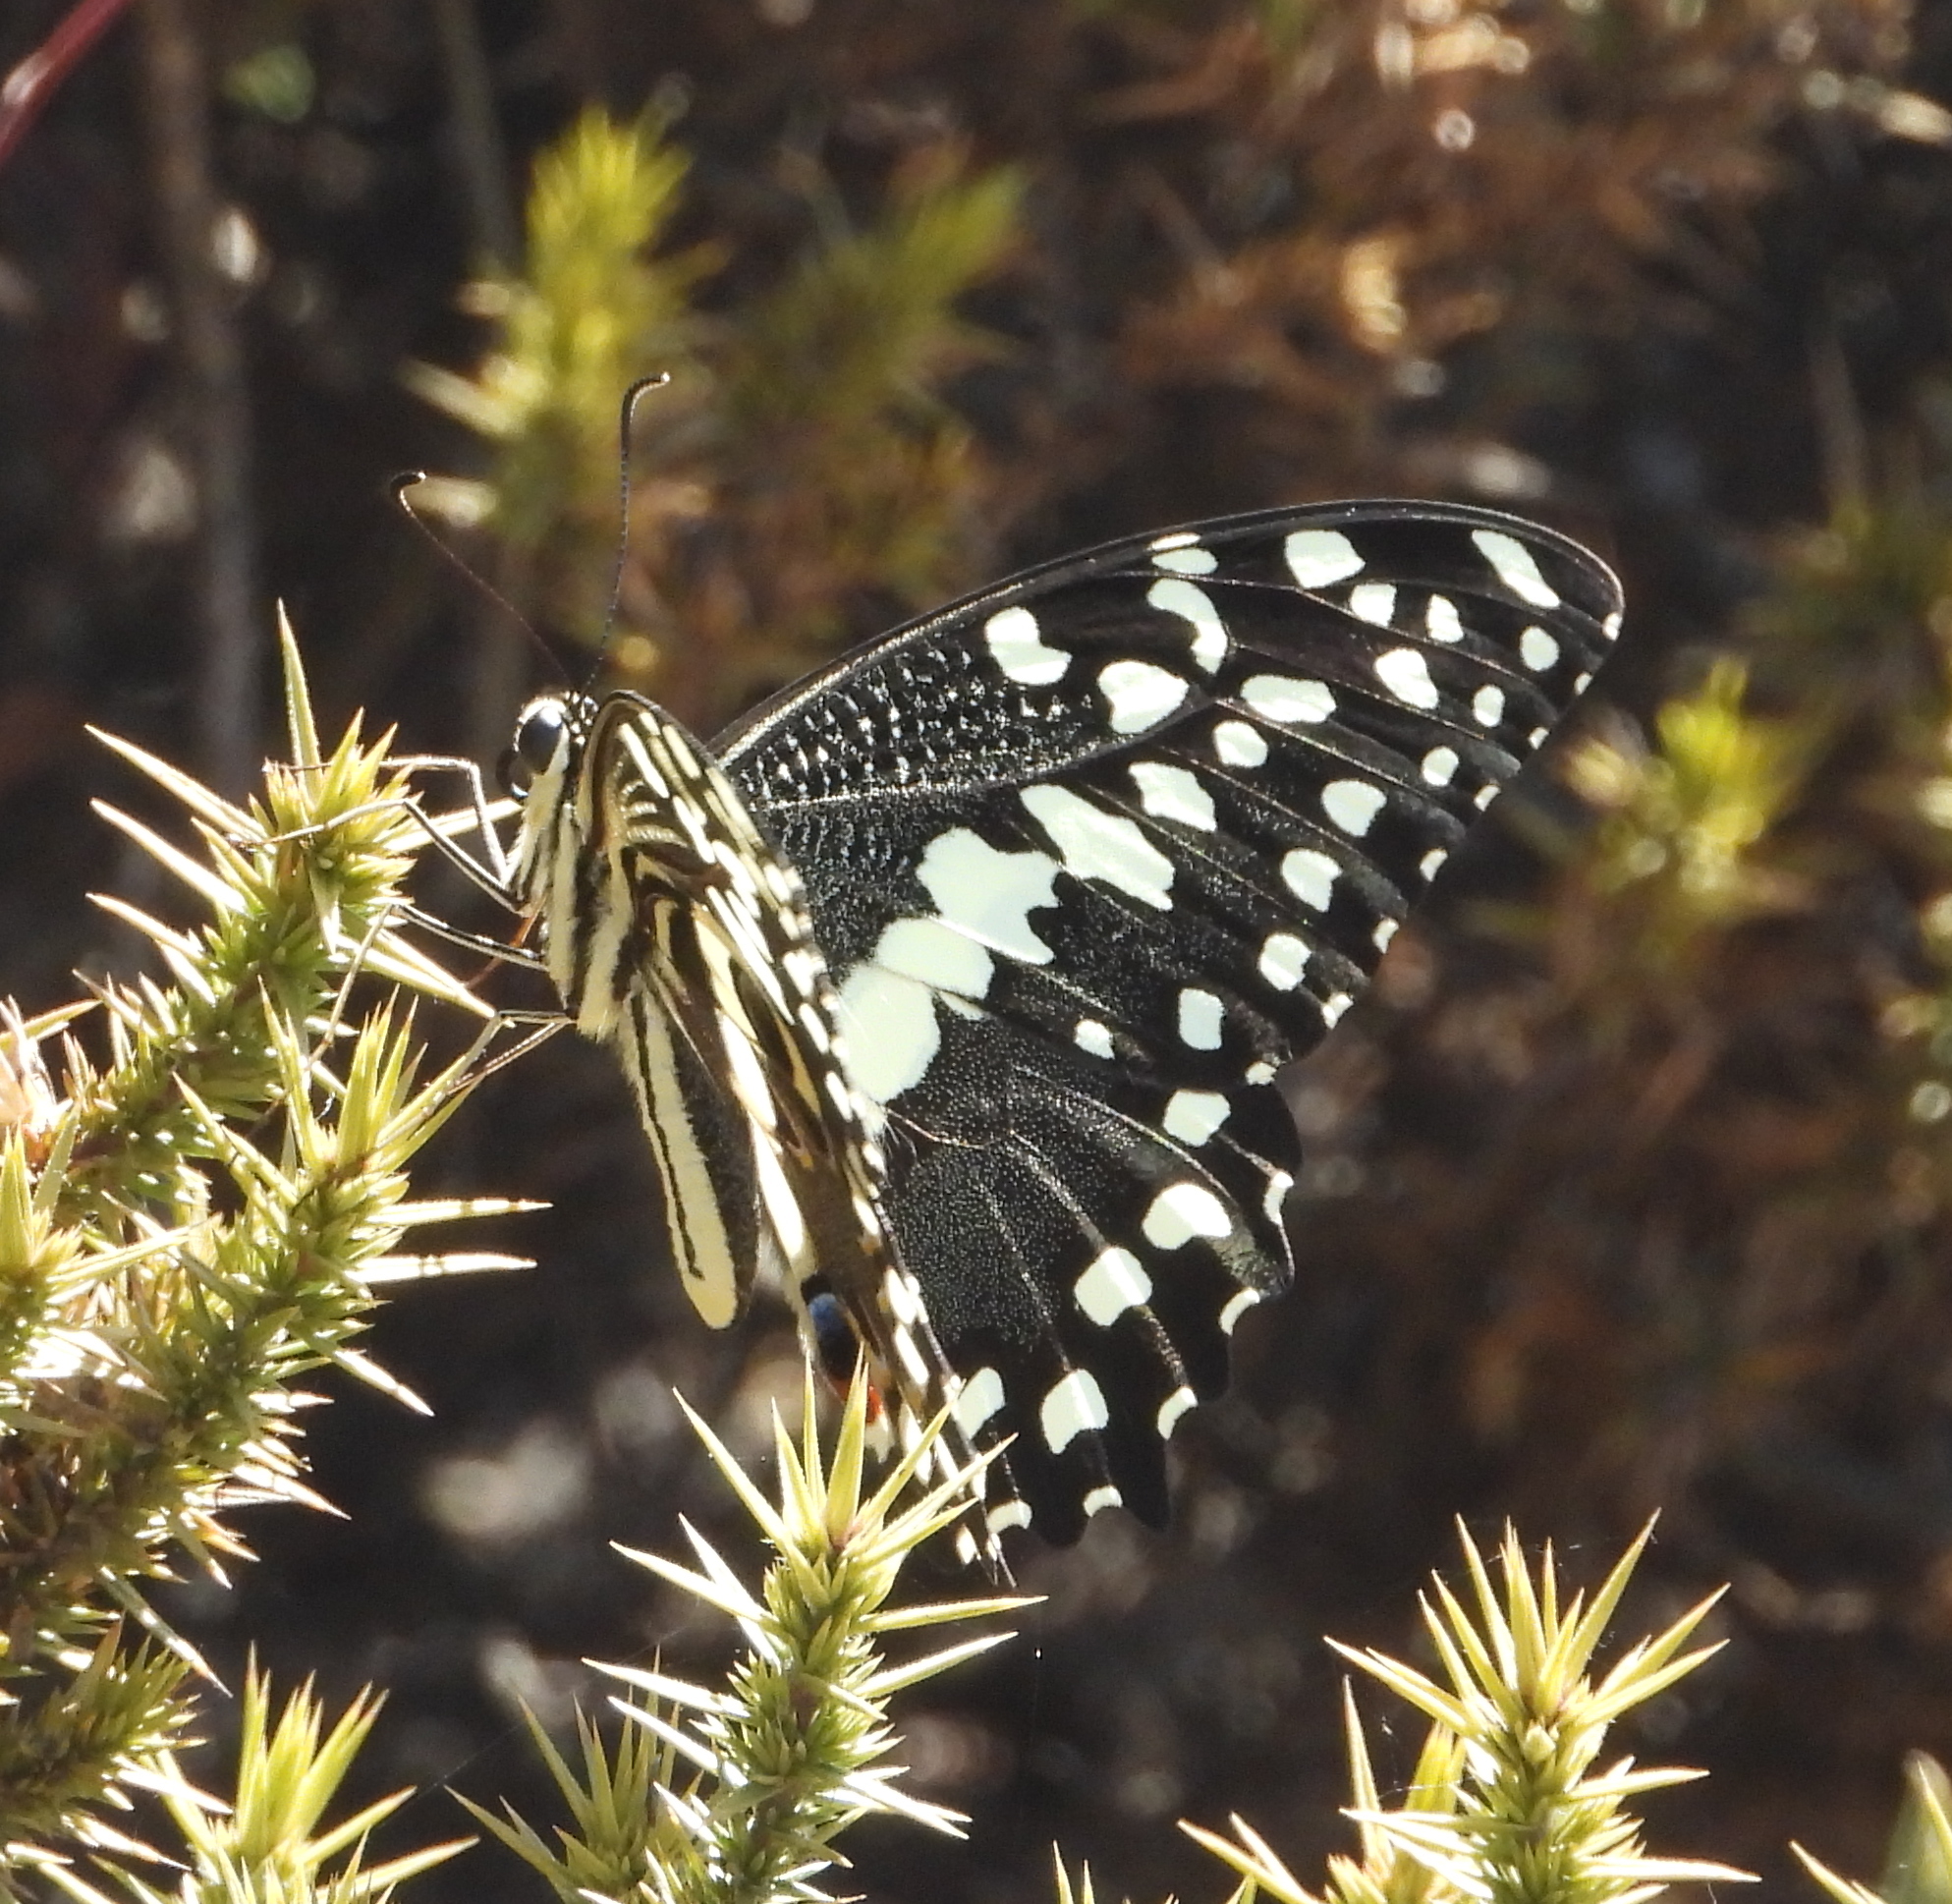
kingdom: Animalia
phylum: Arthropoda
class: Insecta
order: Lepidoptera
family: Papilionidae
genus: Papilio
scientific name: Papilio demodocus
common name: Christmas butterfly
